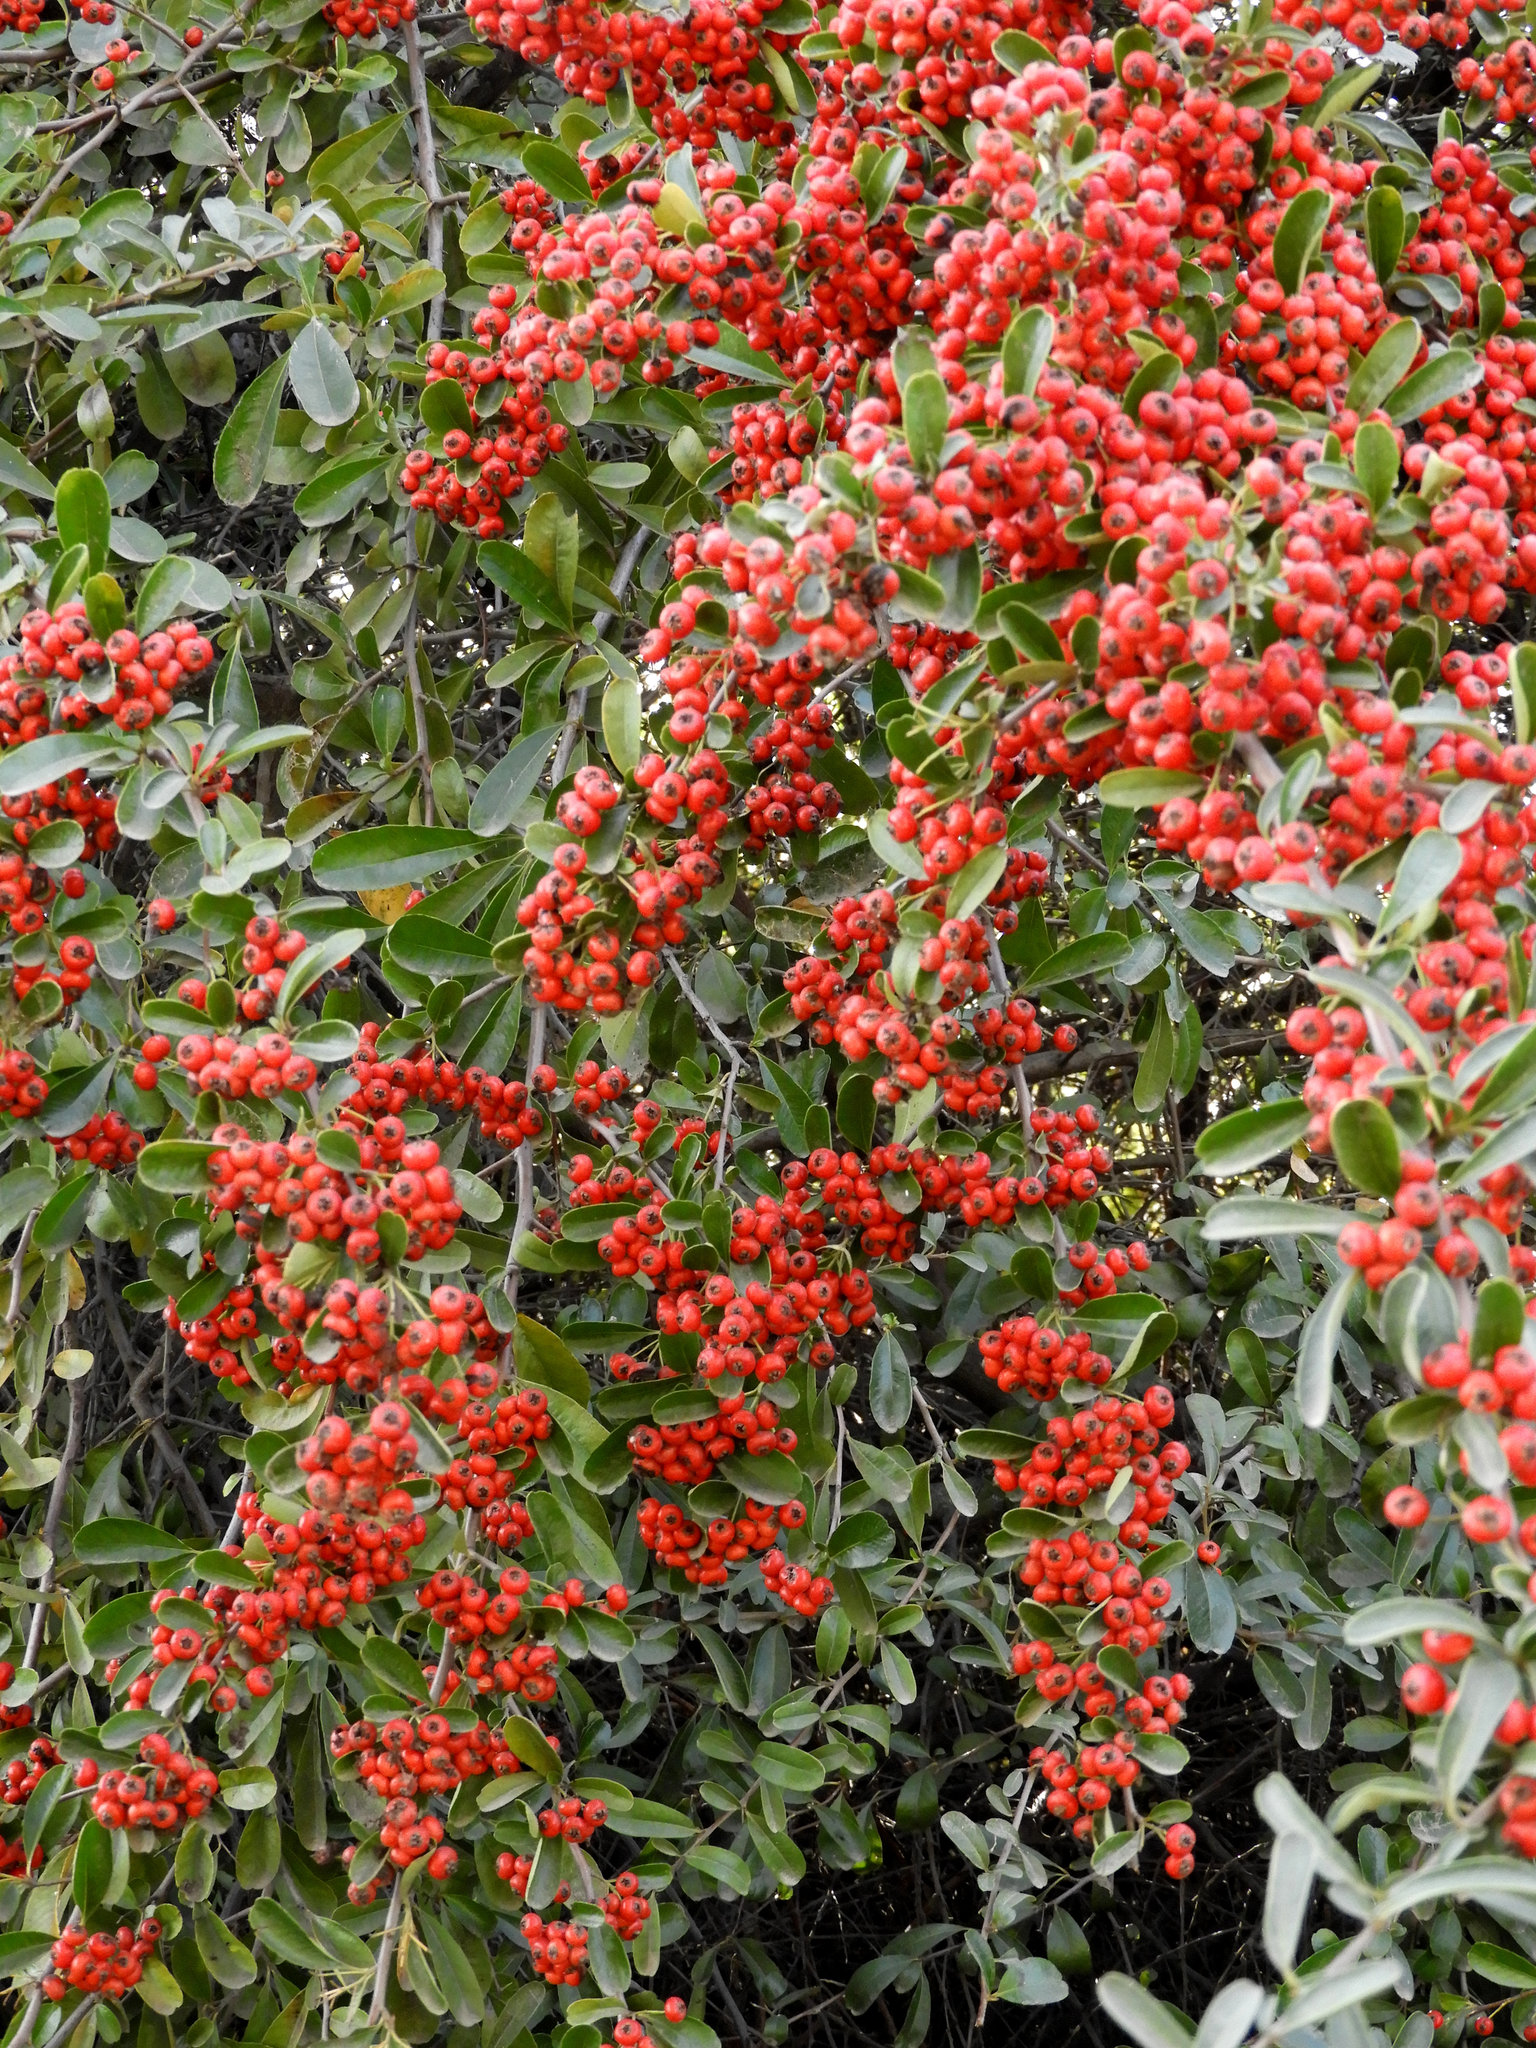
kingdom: Plantae
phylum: Tracheophyta
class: Magnoliopsida
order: Rosales
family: Rosaceae
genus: Pyracantha
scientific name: Pyracantha coccinea
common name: Firethorn
